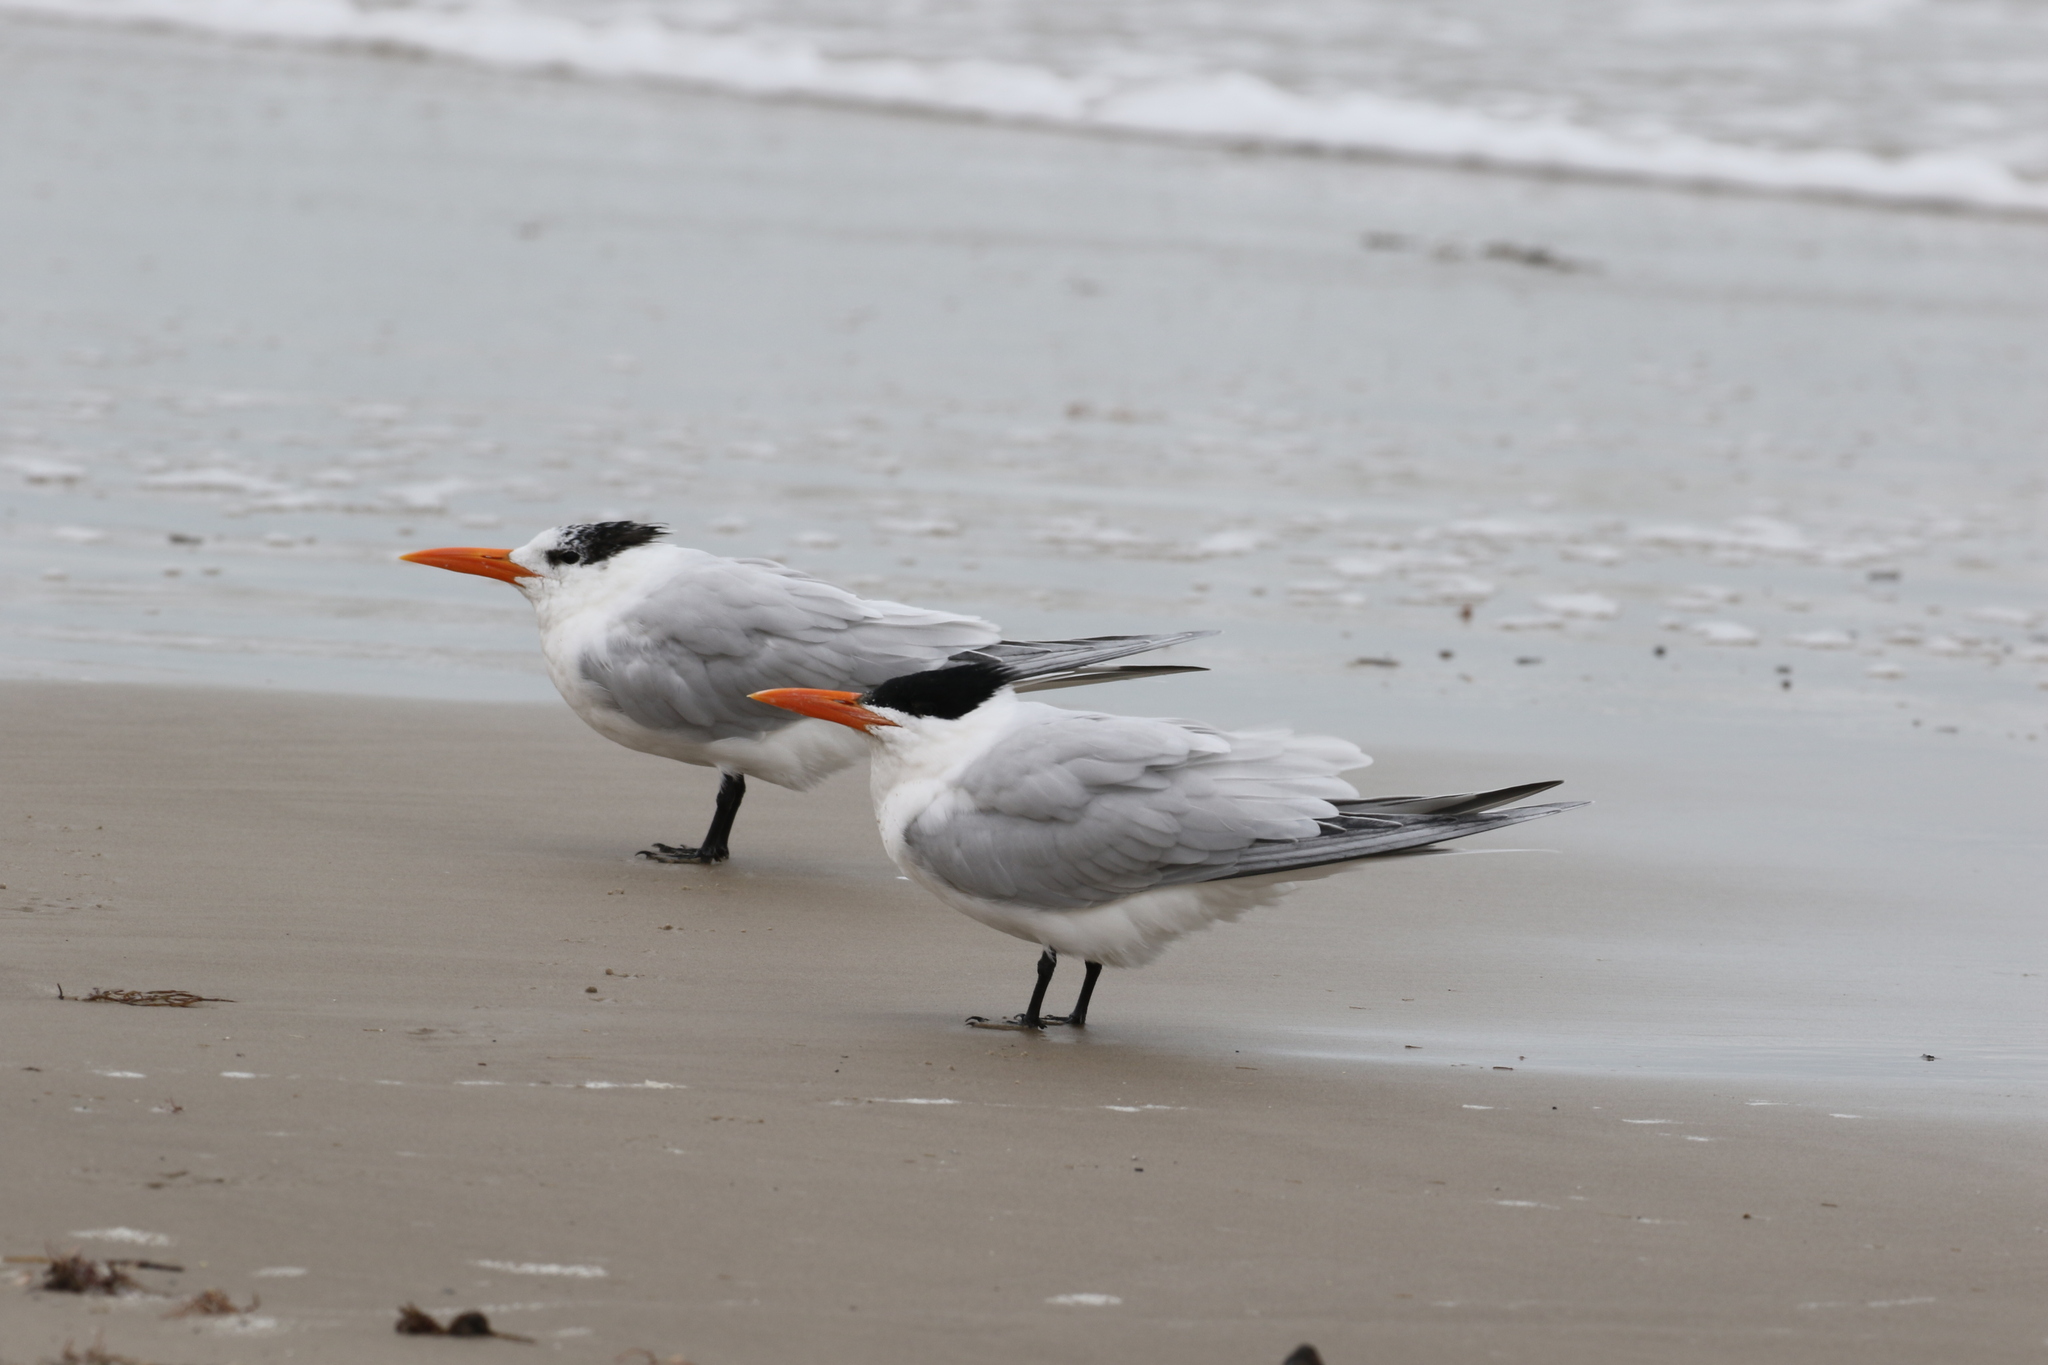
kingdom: Animalia
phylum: Chordata
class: Aves
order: Charadriiformes
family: Laridae
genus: Thalasseus
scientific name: Thalasseus maximus
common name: Royal tern
